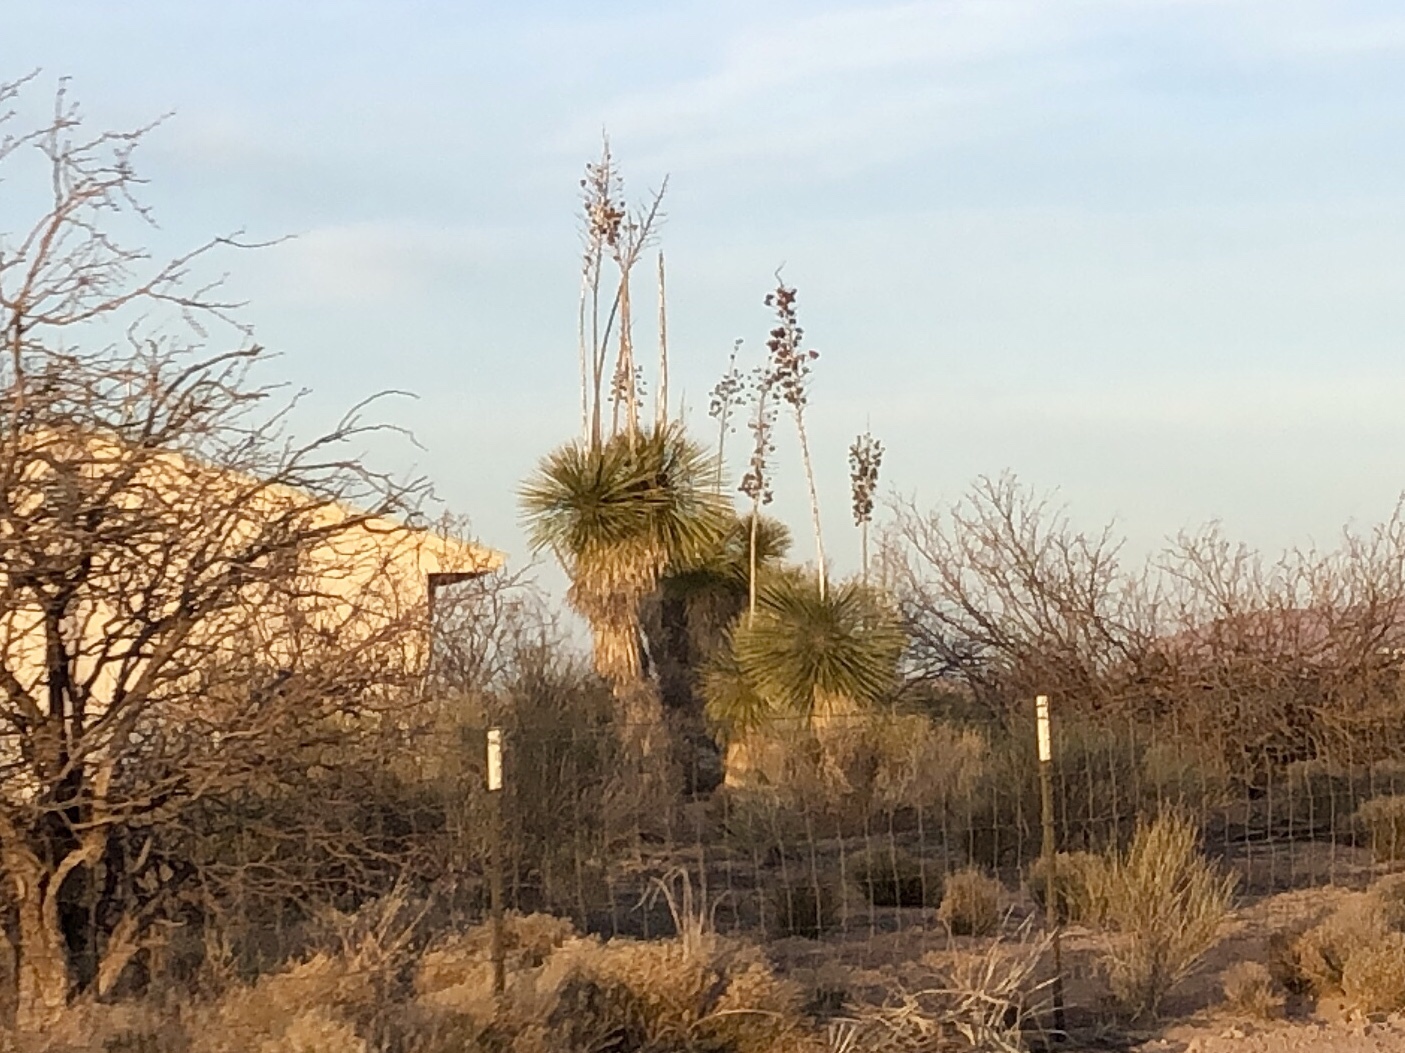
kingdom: Plantae
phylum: Tracheophyta
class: Liliopsida
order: Asparagales
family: Asparagaceae
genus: Yucca
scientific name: Yucca elata
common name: Palmella
